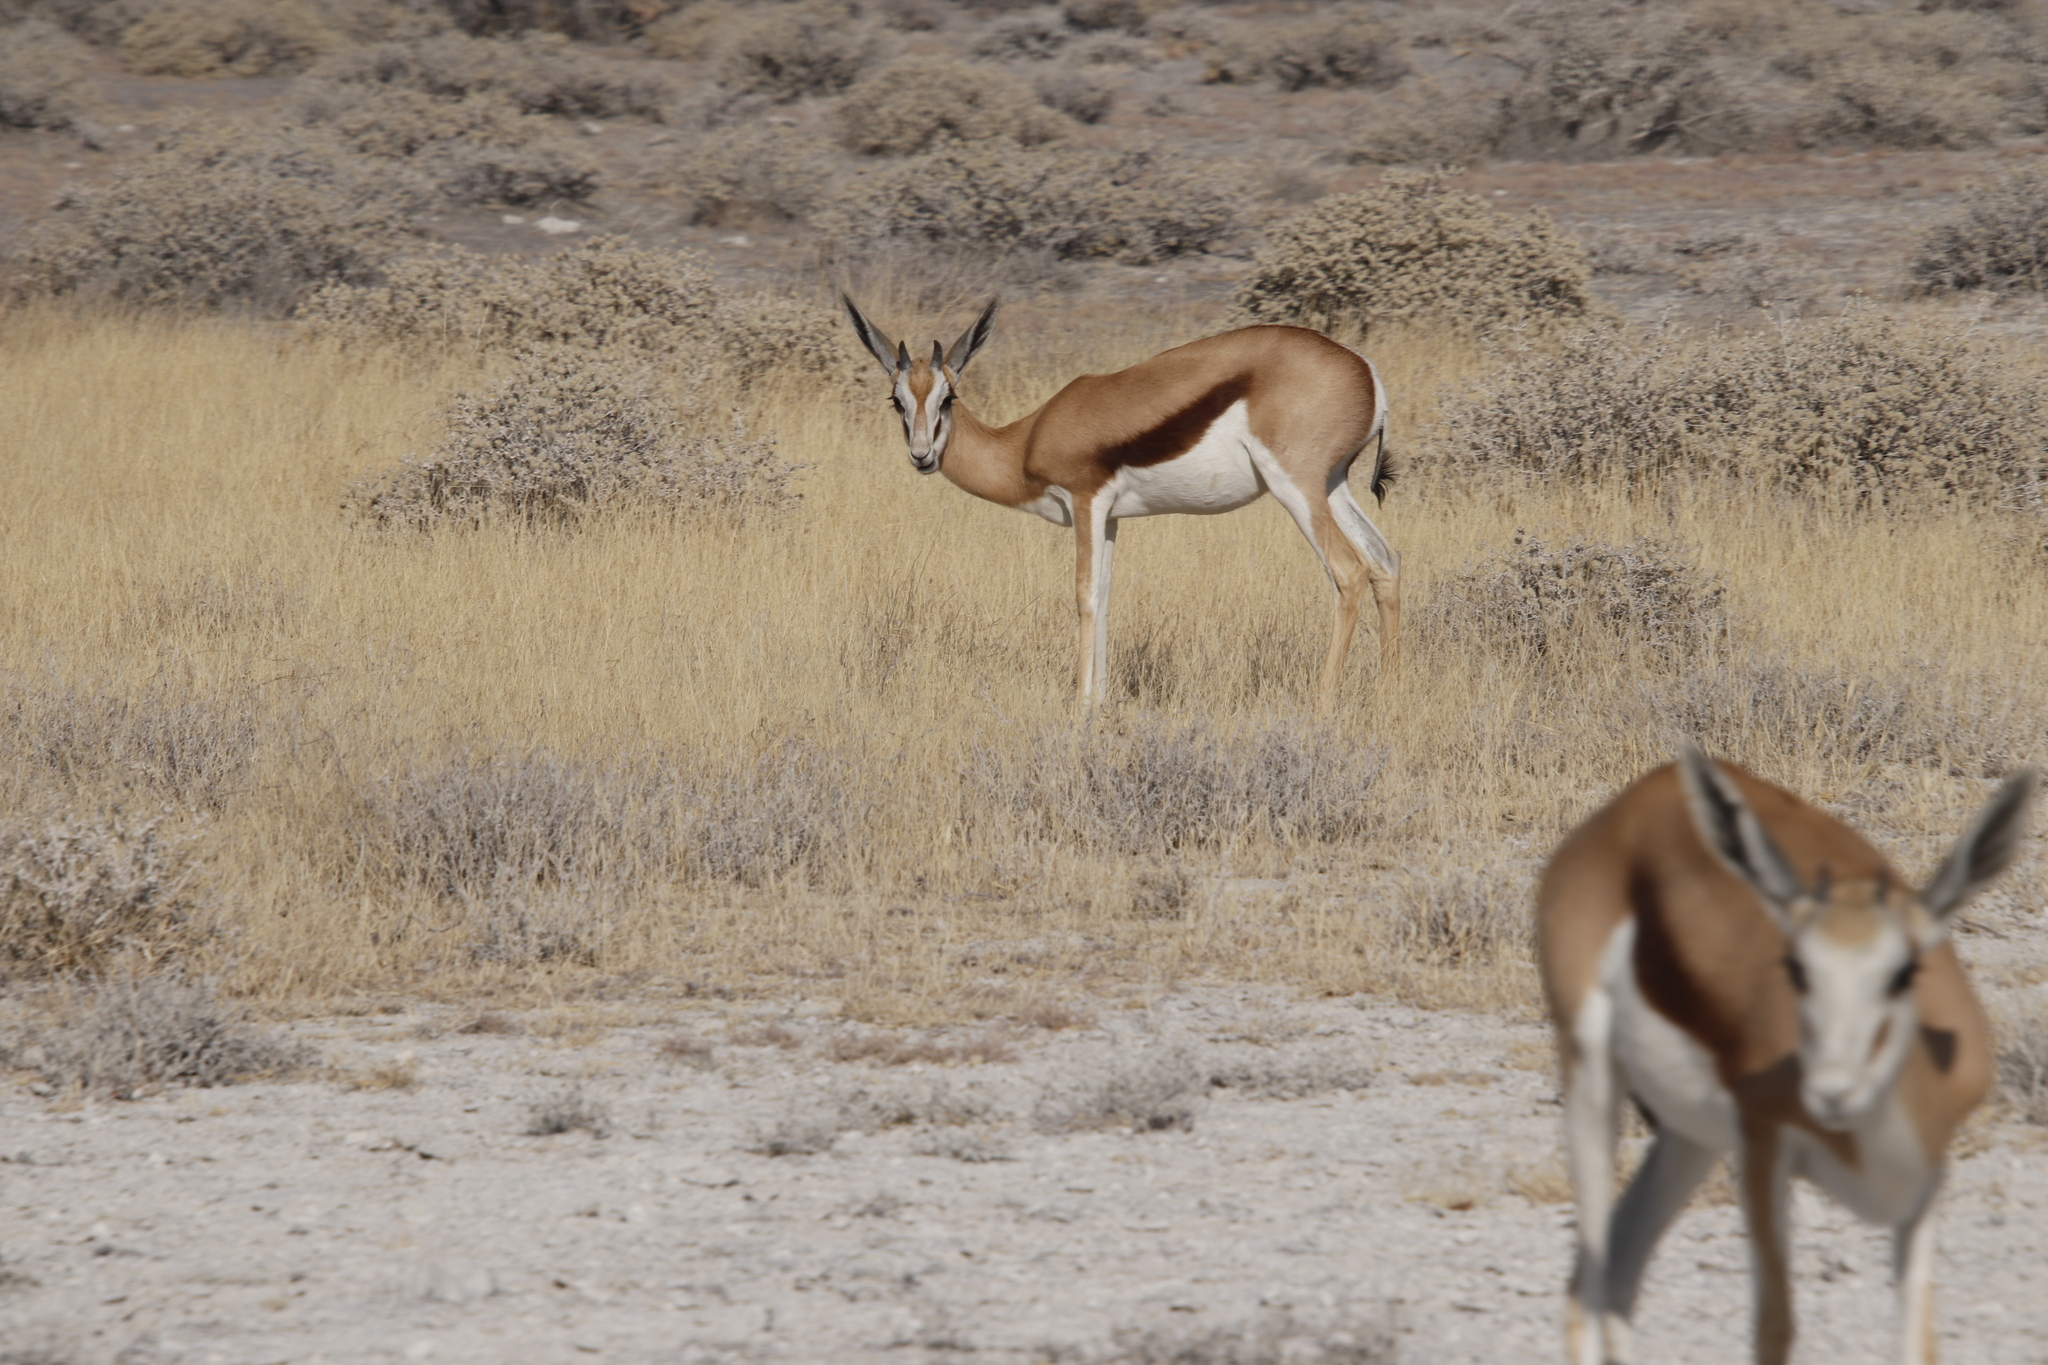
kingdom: Animalia
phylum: Chordata
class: Mammalia
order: Artiodactyla
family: Bovidae
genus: Antidorcas
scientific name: Antidorcas marsupialis
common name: Springbok
